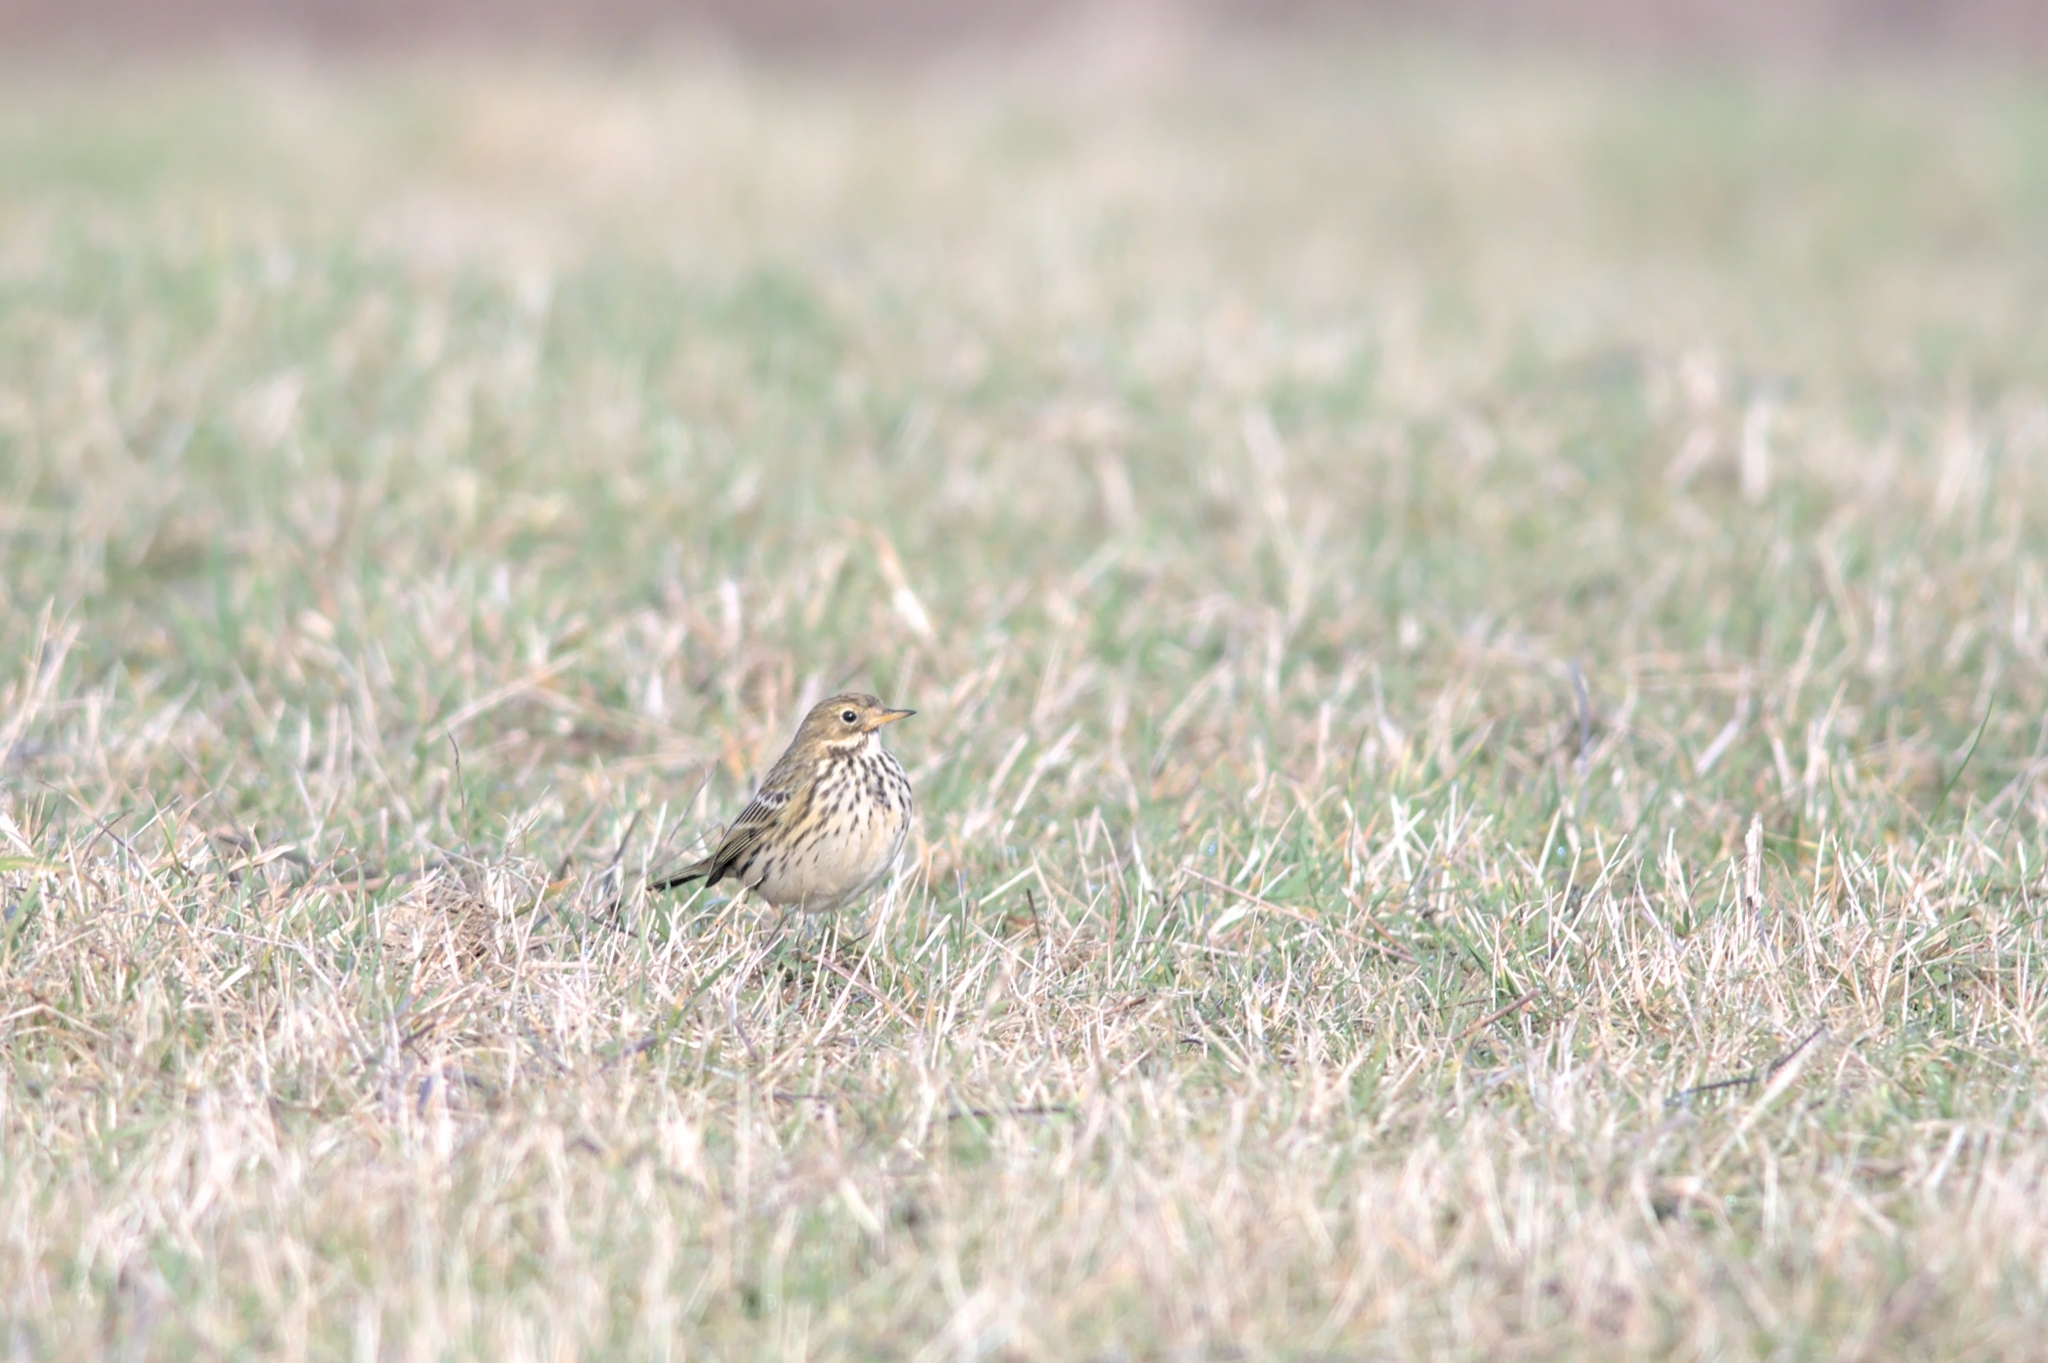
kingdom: Animalia
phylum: Chordata
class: Aves
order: Passeriformes
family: Motacillidae
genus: Anthus
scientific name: Anthus pratensis
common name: Meadow pipit
